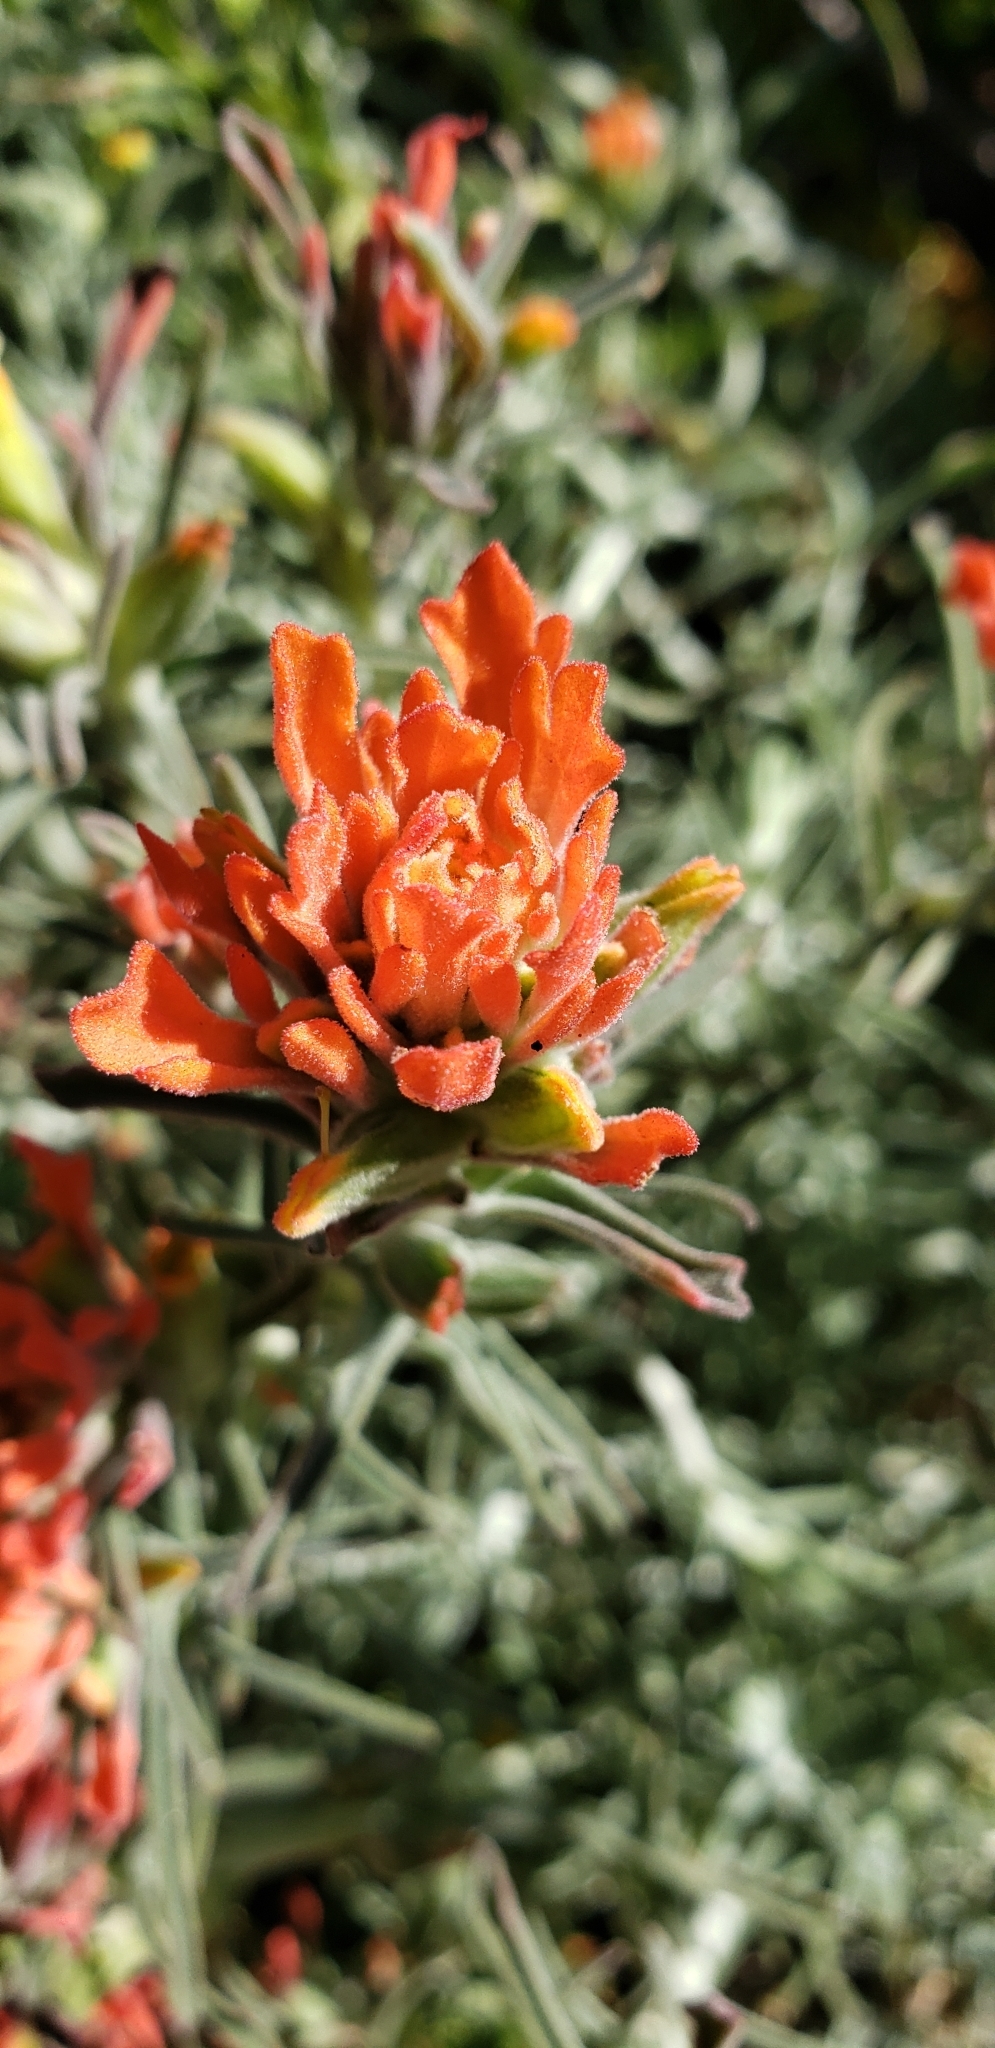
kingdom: Plantae
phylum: Tracheophyta
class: Magnoliopsida
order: Lamiales
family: Orobanchaceae
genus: Castilleja
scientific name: Castilleja foliolosa
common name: Woolly indian paintbrush
